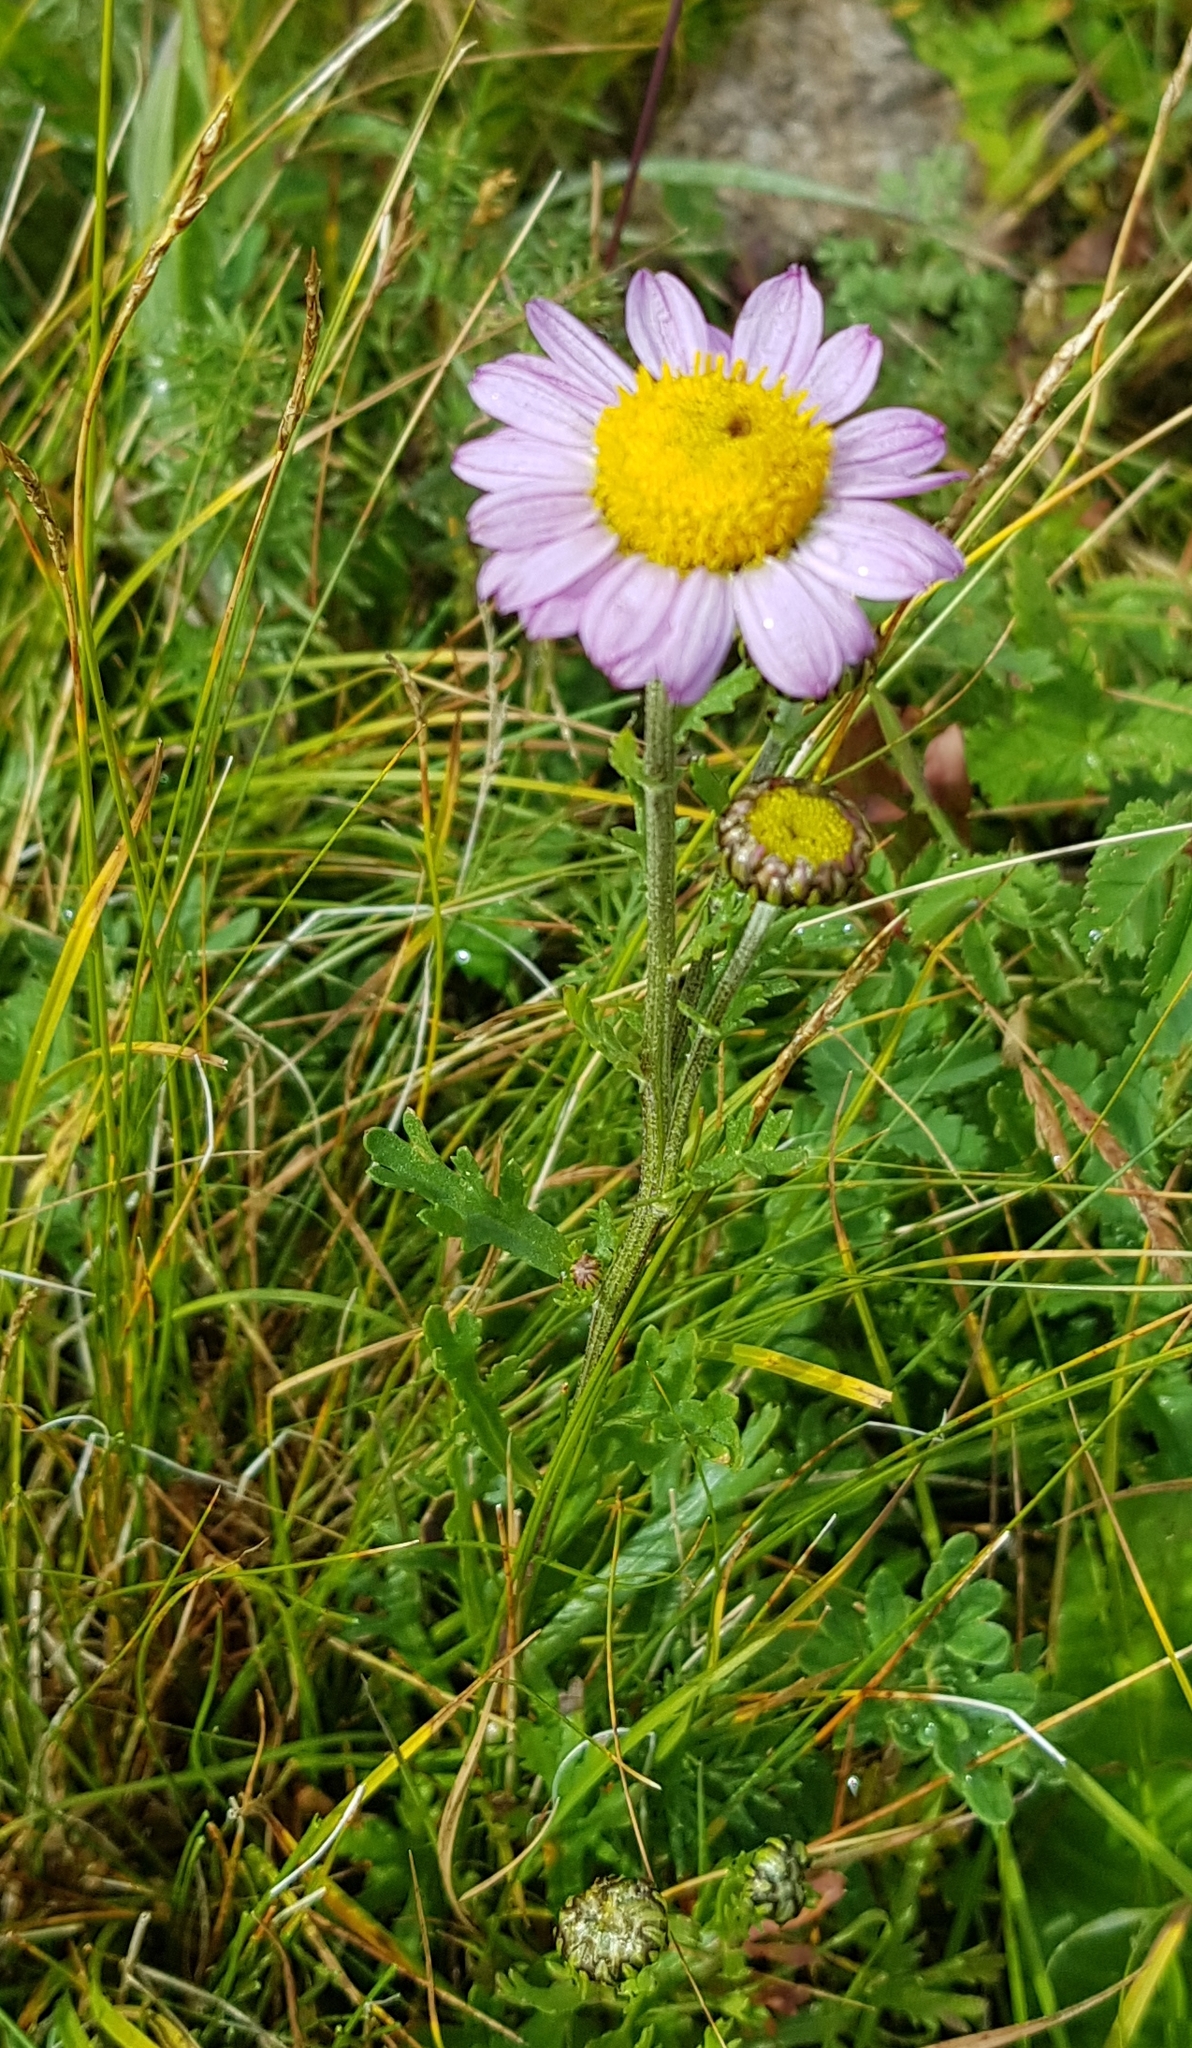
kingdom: Plantae
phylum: Tracheophyta
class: Magnoliopsida
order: Asterales
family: Asteraceae
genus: Chrysanthemum
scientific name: Chrysanthemum zawadzkii
